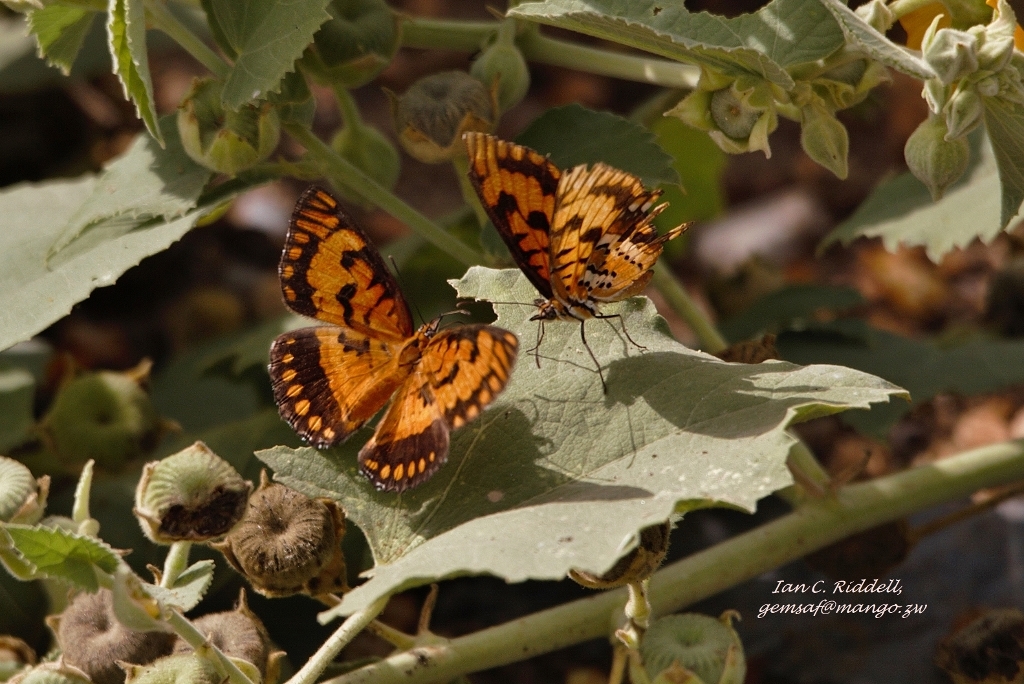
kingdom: Animalia
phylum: Arthropoda
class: Insecta
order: Lepidoptera
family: Nymphalidae
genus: Byblia
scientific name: Byblia ilithyia
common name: Spotted joker
